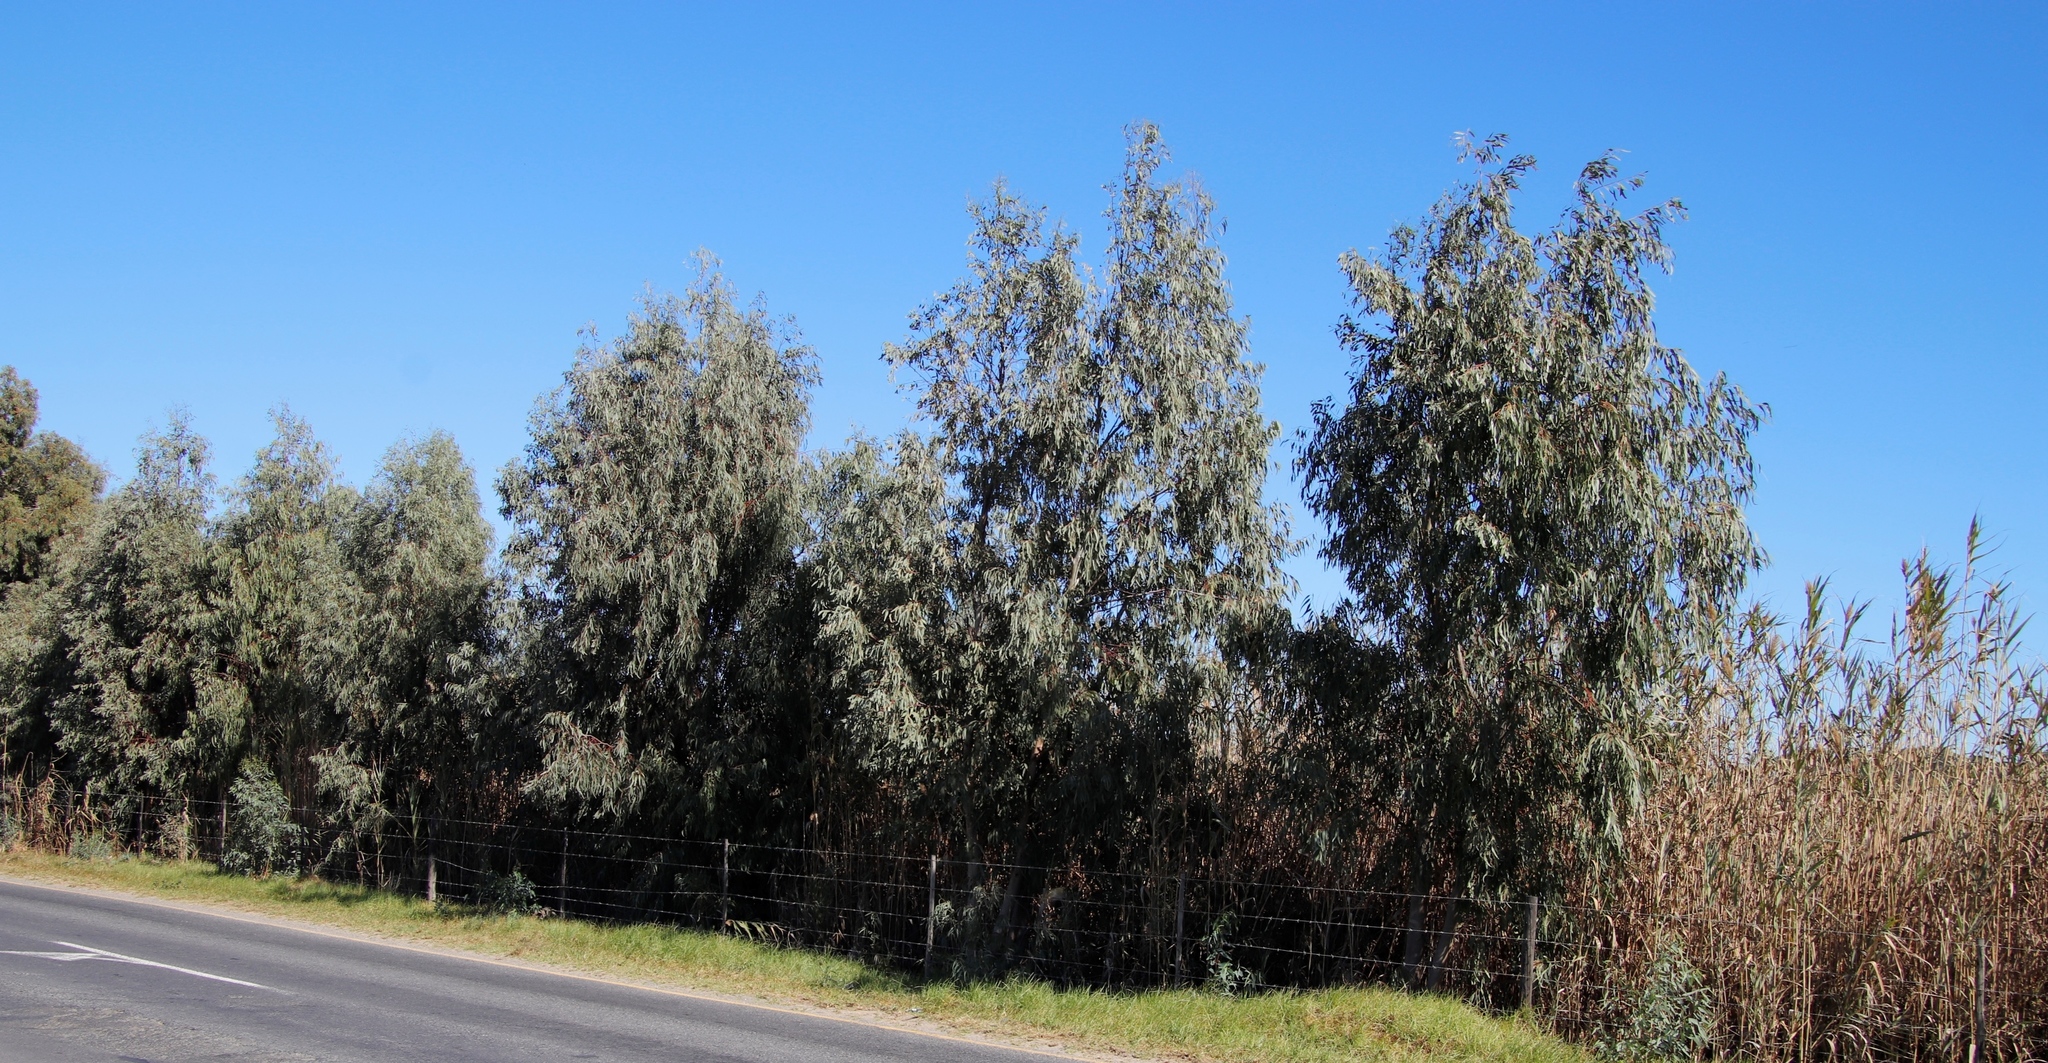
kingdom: Plantae
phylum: Tracheophyta
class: Magnoliopsida
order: Myrtales
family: Myrtaceae
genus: Eucalyptus
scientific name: Eucalyptus camaldulensis
